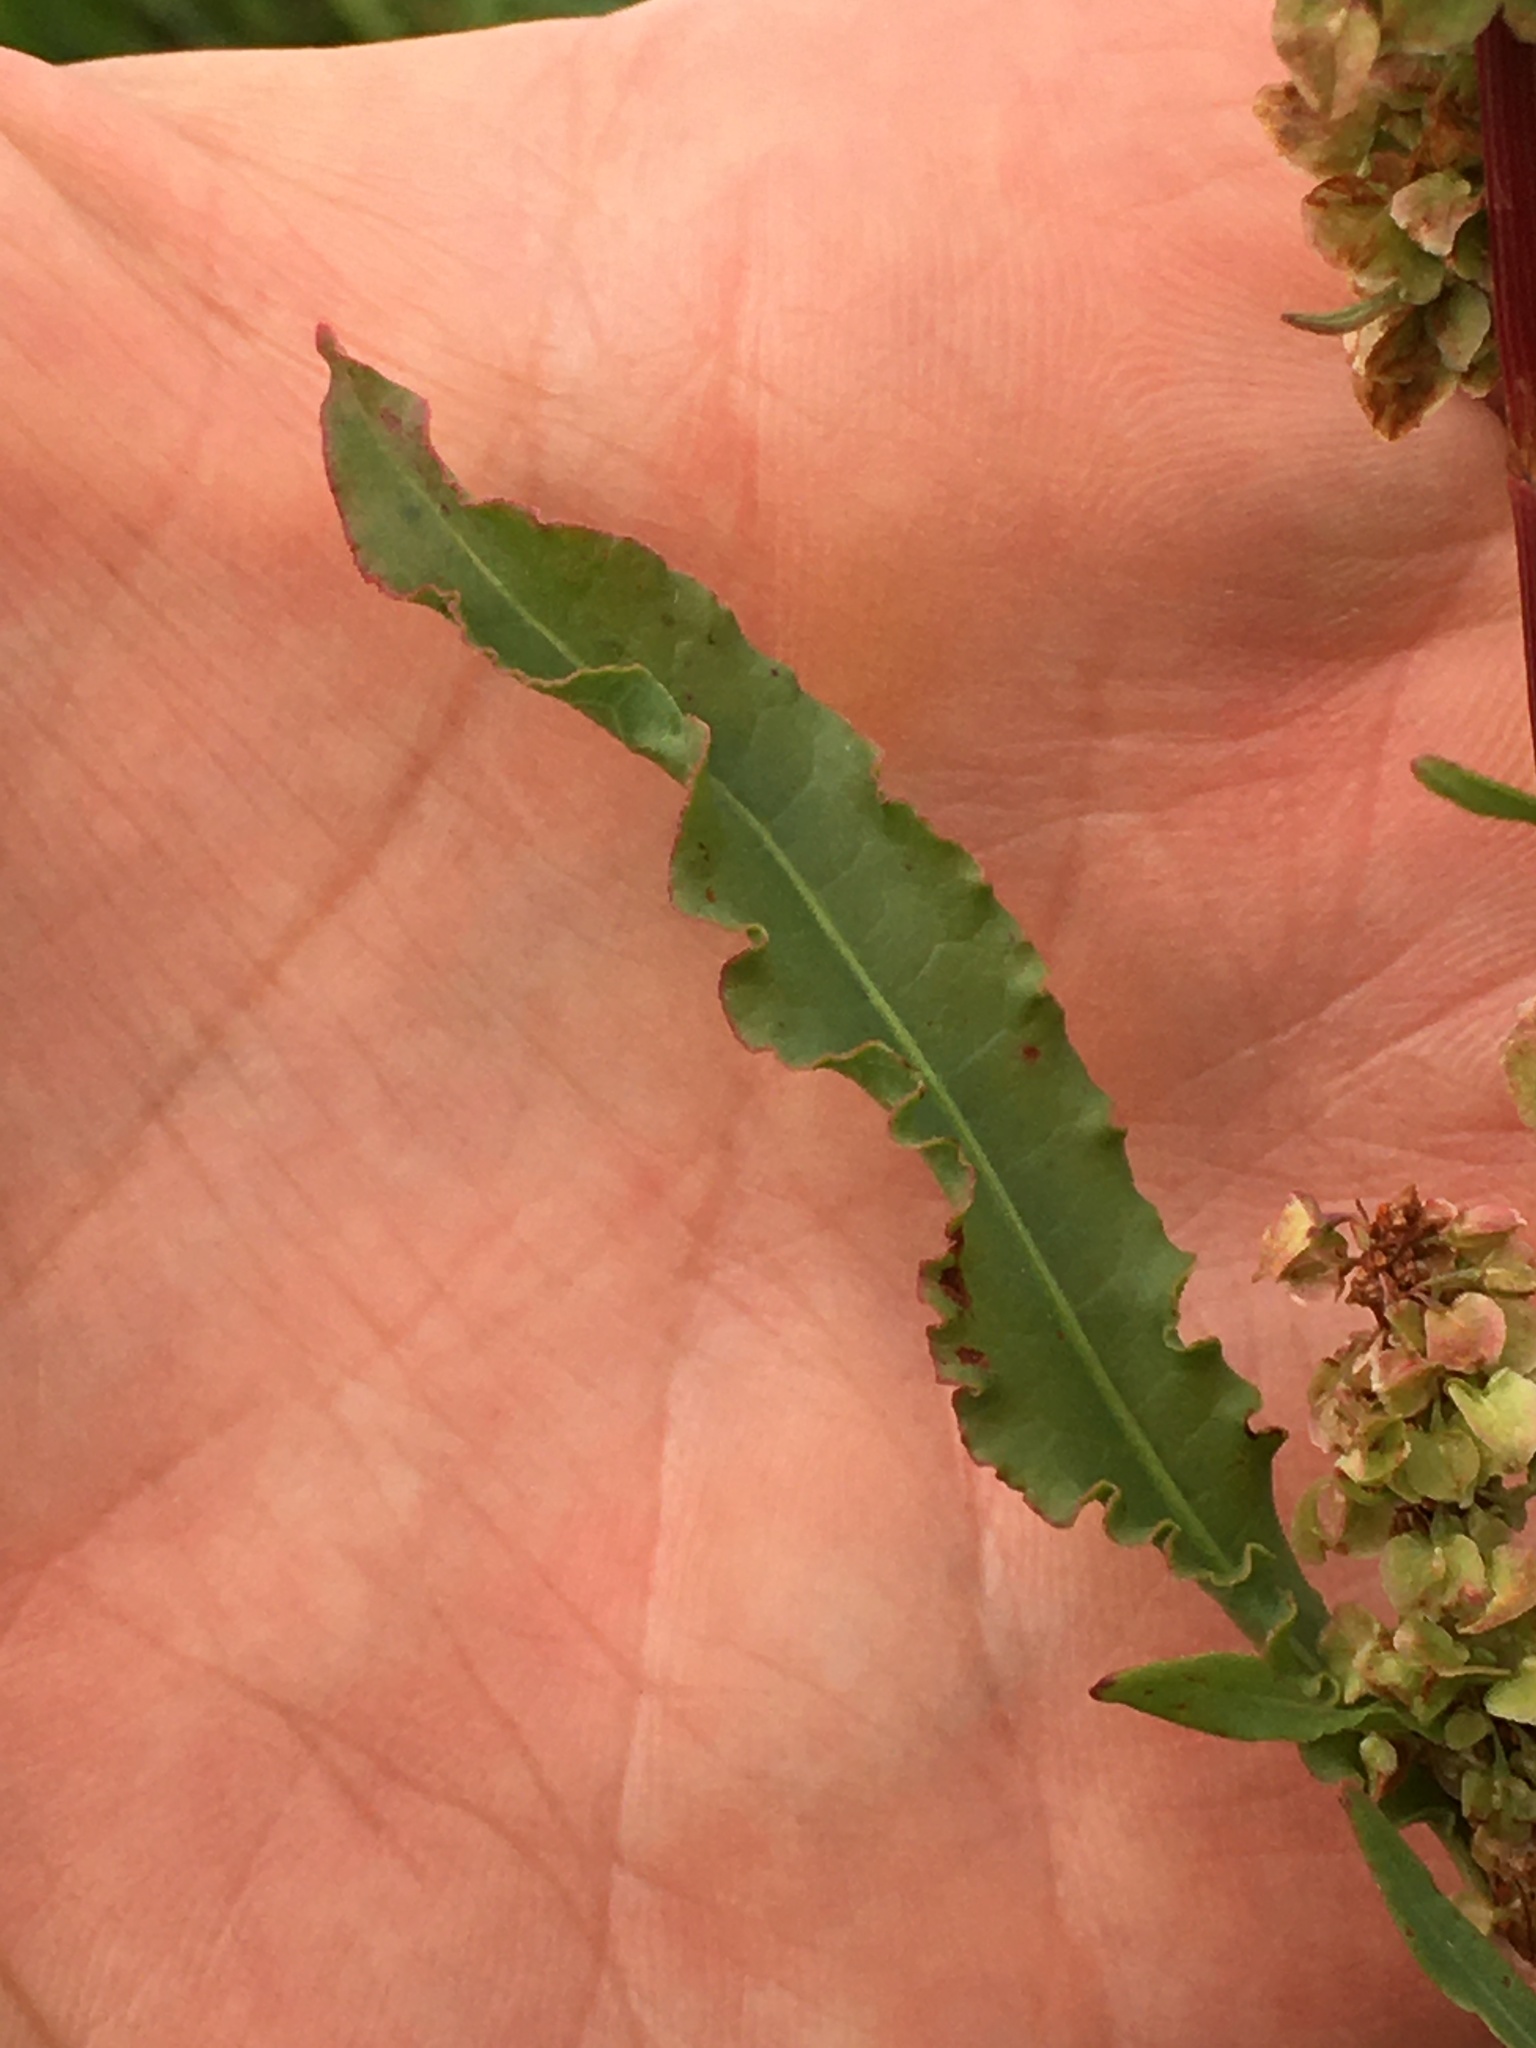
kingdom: Plantae
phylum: Tracheophyta
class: Magnoliopsida
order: Caryophyllales
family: Polygonaceae
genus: Rumex
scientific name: Rumex crispus
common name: Curled dock
